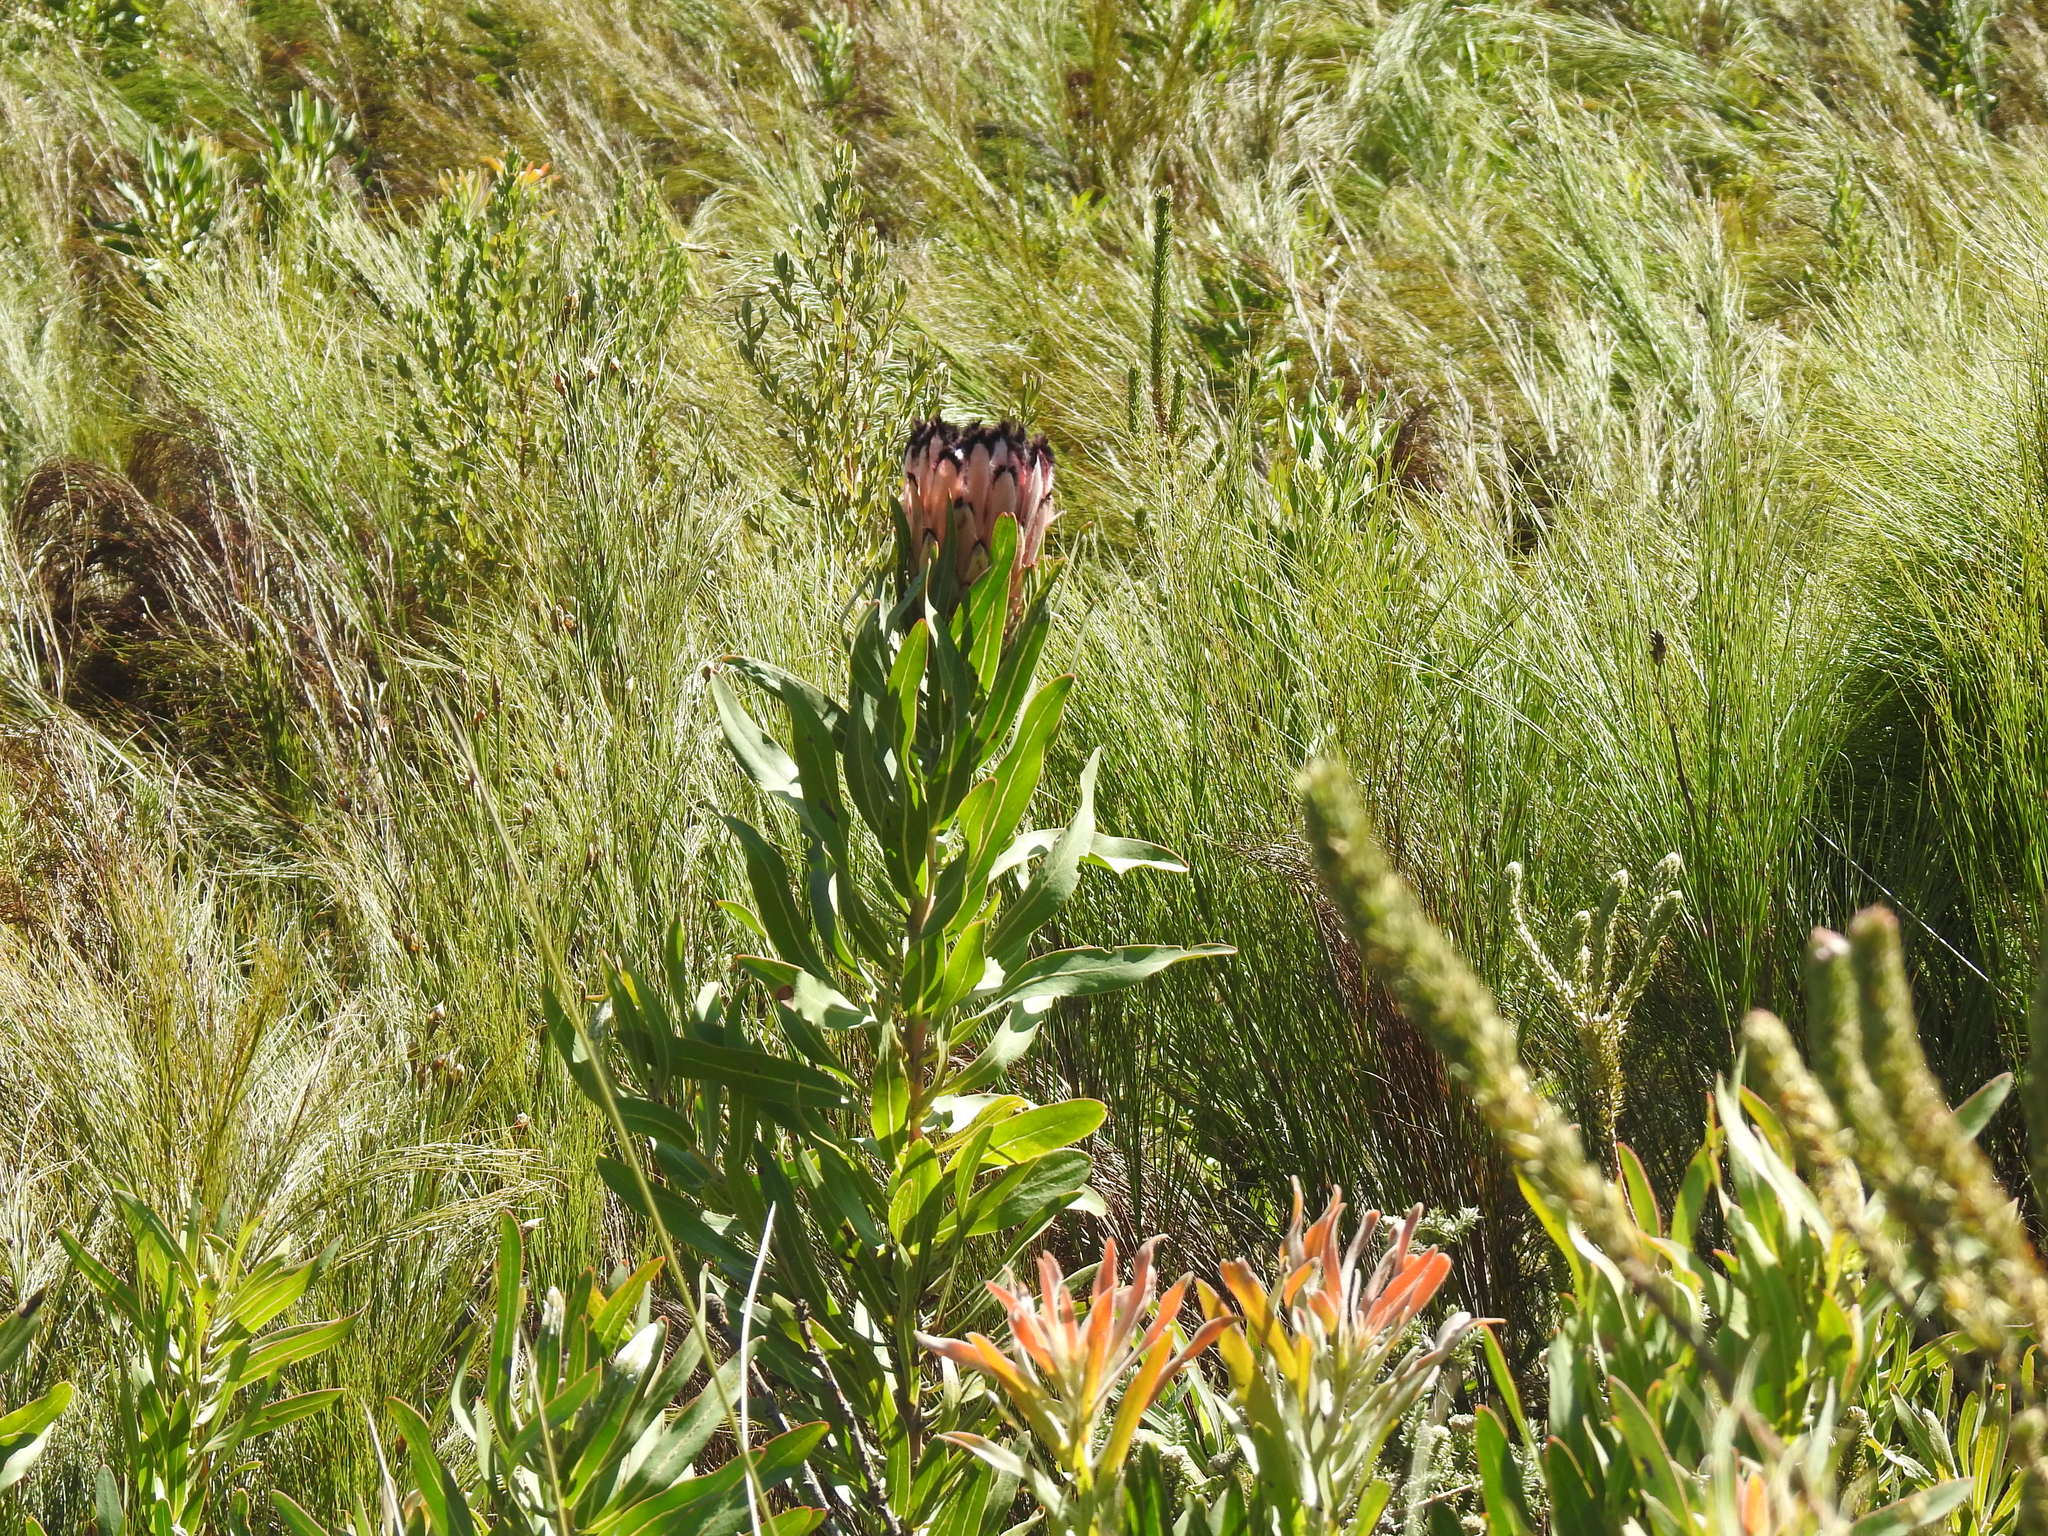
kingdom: Plantae
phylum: Tracheophyta
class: Magnoliopsida
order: Proteales
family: Proteaceae
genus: Protea
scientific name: Protea neriifolia
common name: Blue sugarbush
